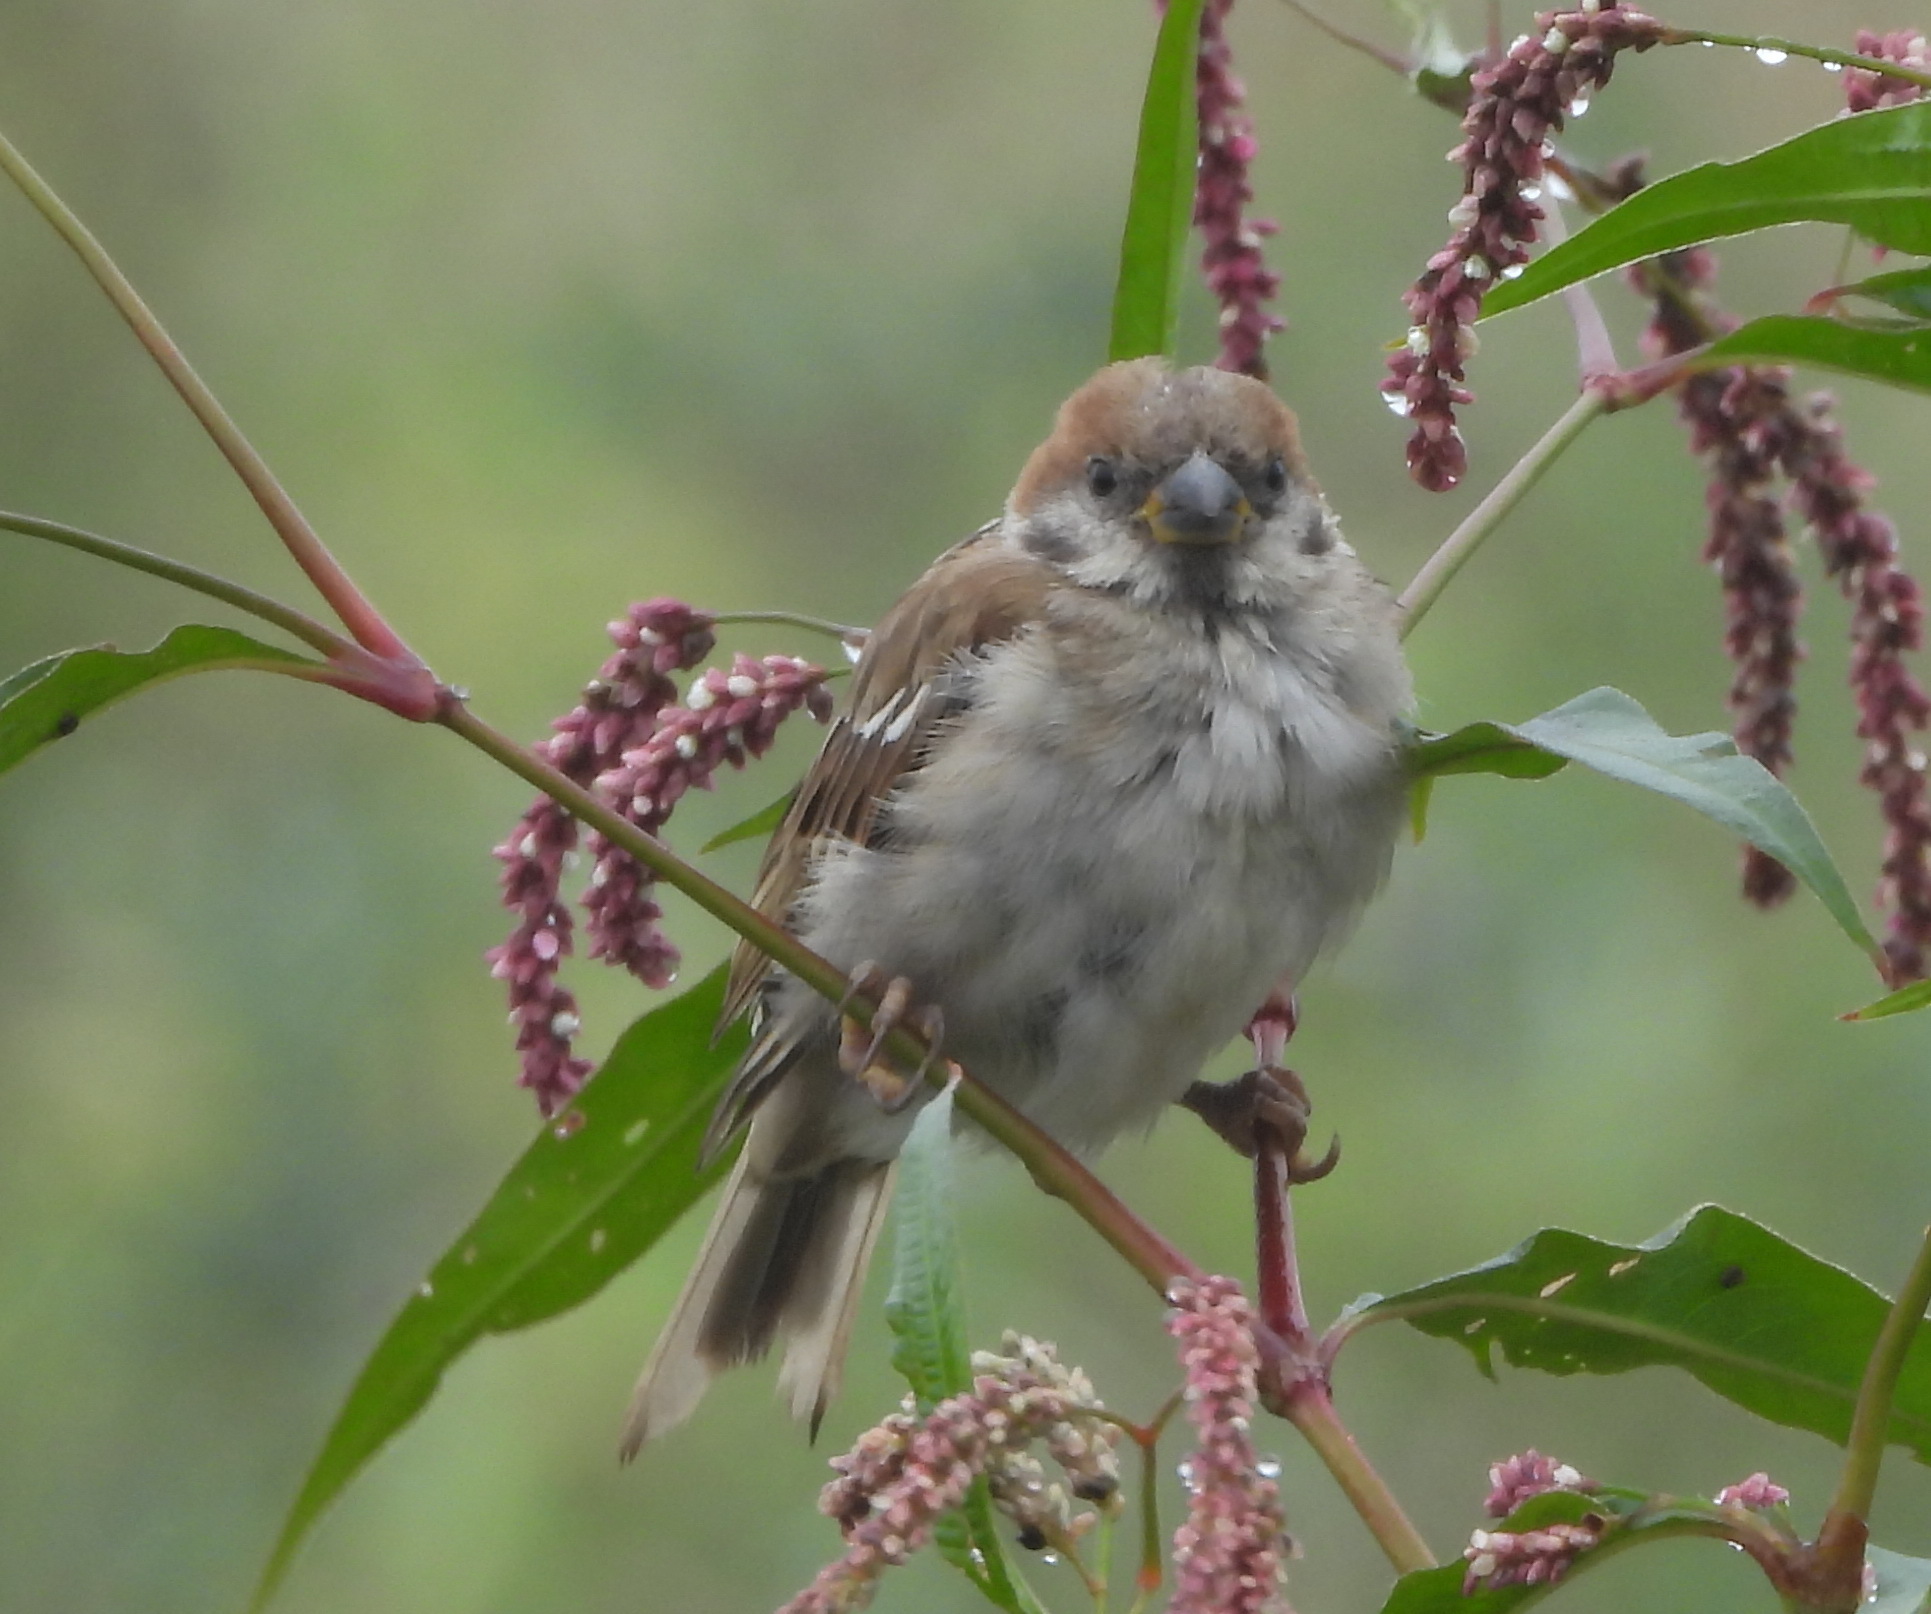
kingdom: Animalia
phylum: Chordata
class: Aves
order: Passeriformes
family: Passeridae
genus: Passer
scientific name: Passer montanus
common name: Eurasian tree sparrow
